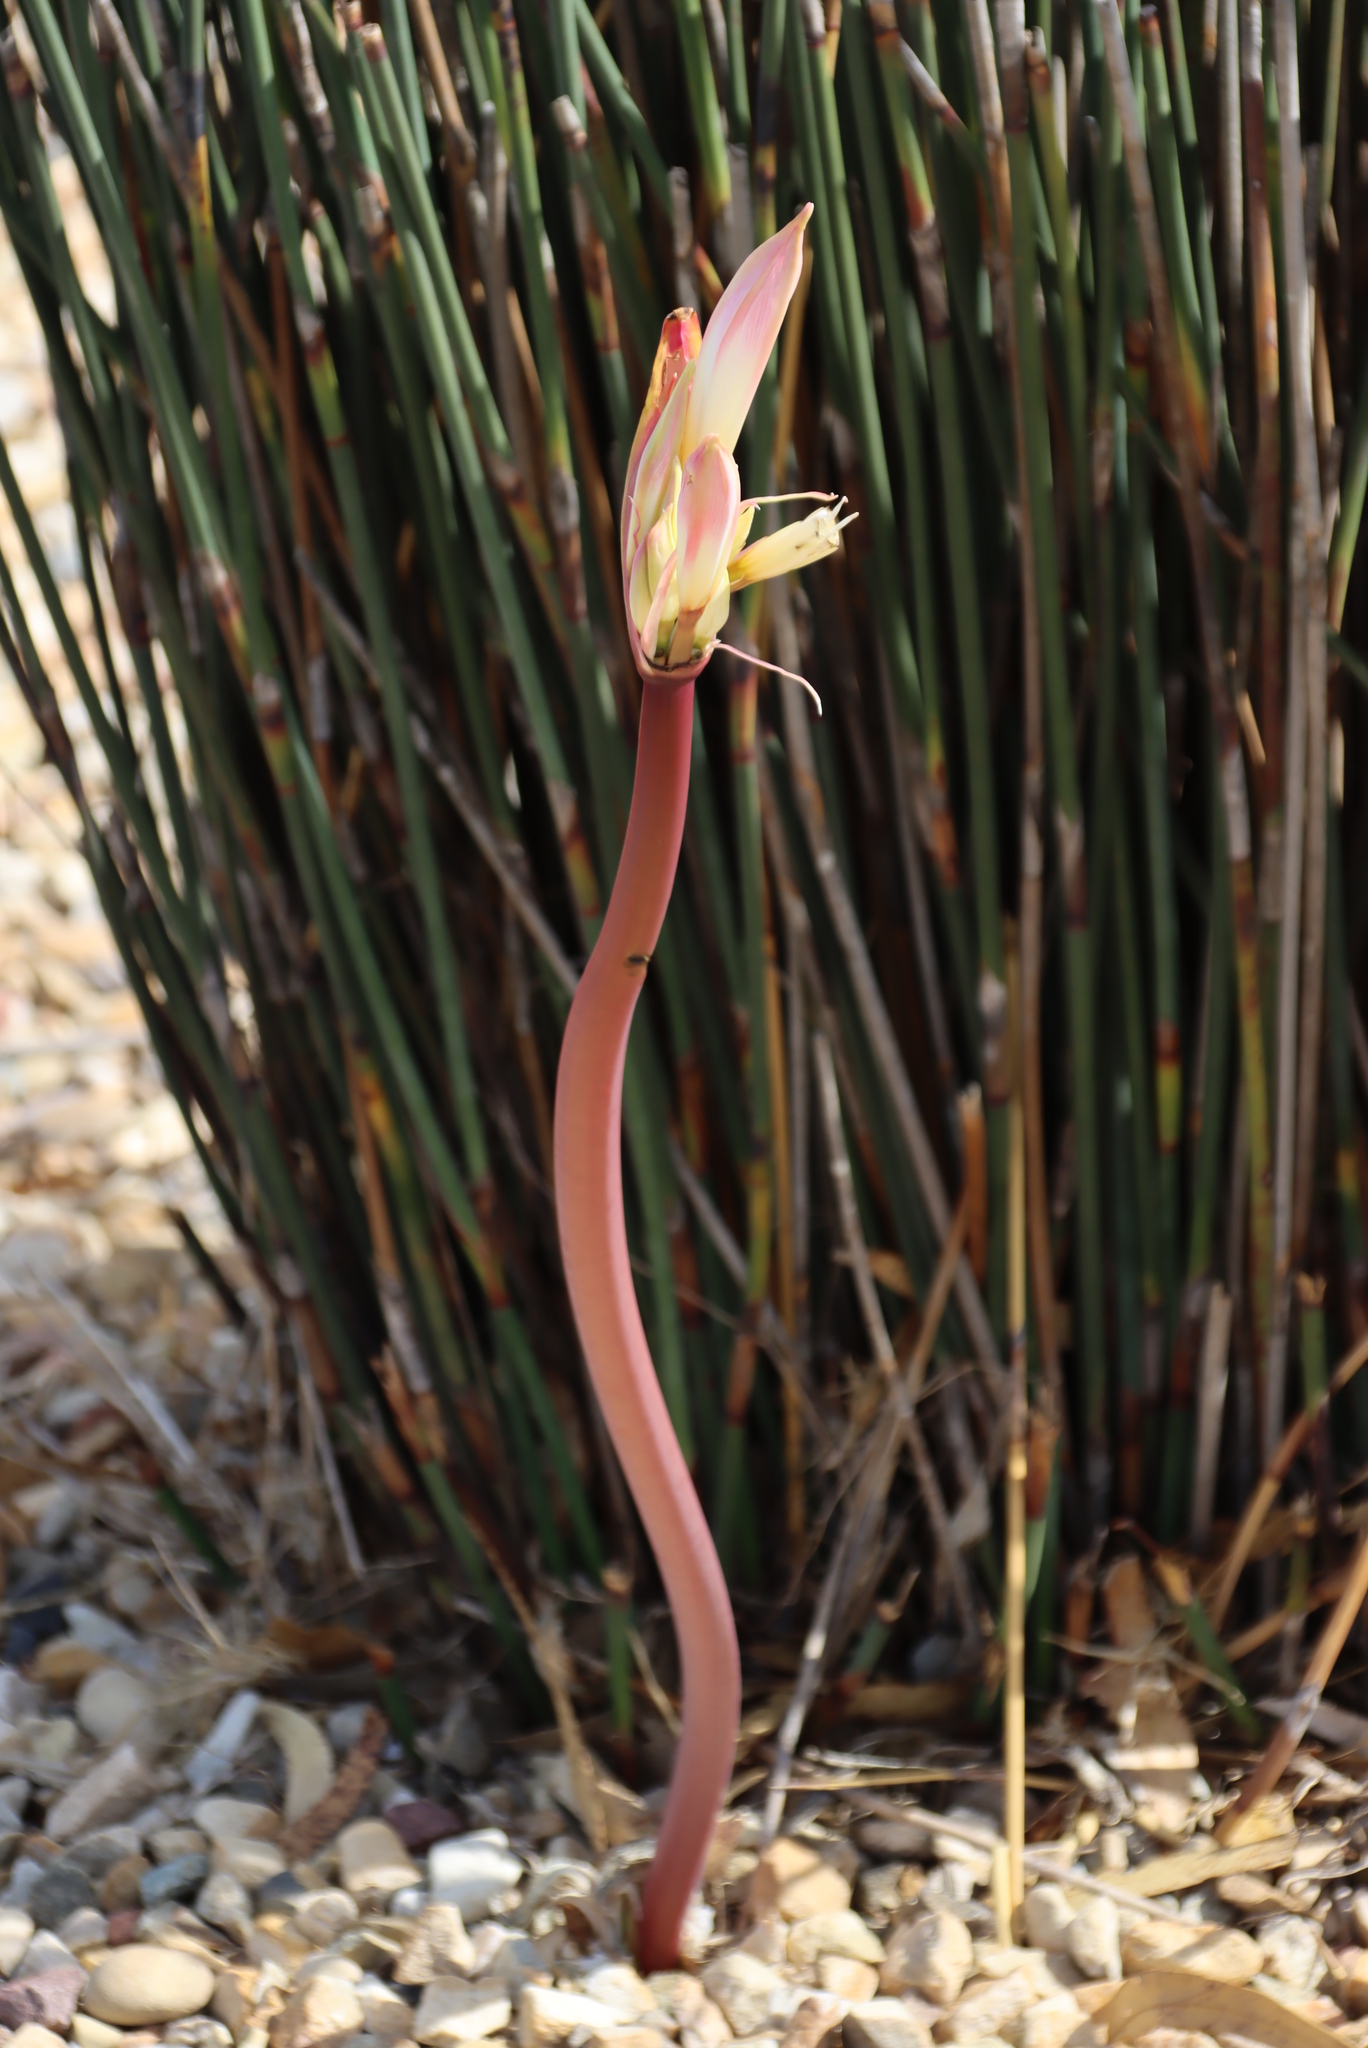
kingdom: Plantae
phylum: Tracheophyta
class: Liliopsida
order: Asparagales
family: Amaryllidaceae
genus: Amaryllis
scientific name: Amaryllis belladonna
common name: Jersey lily
